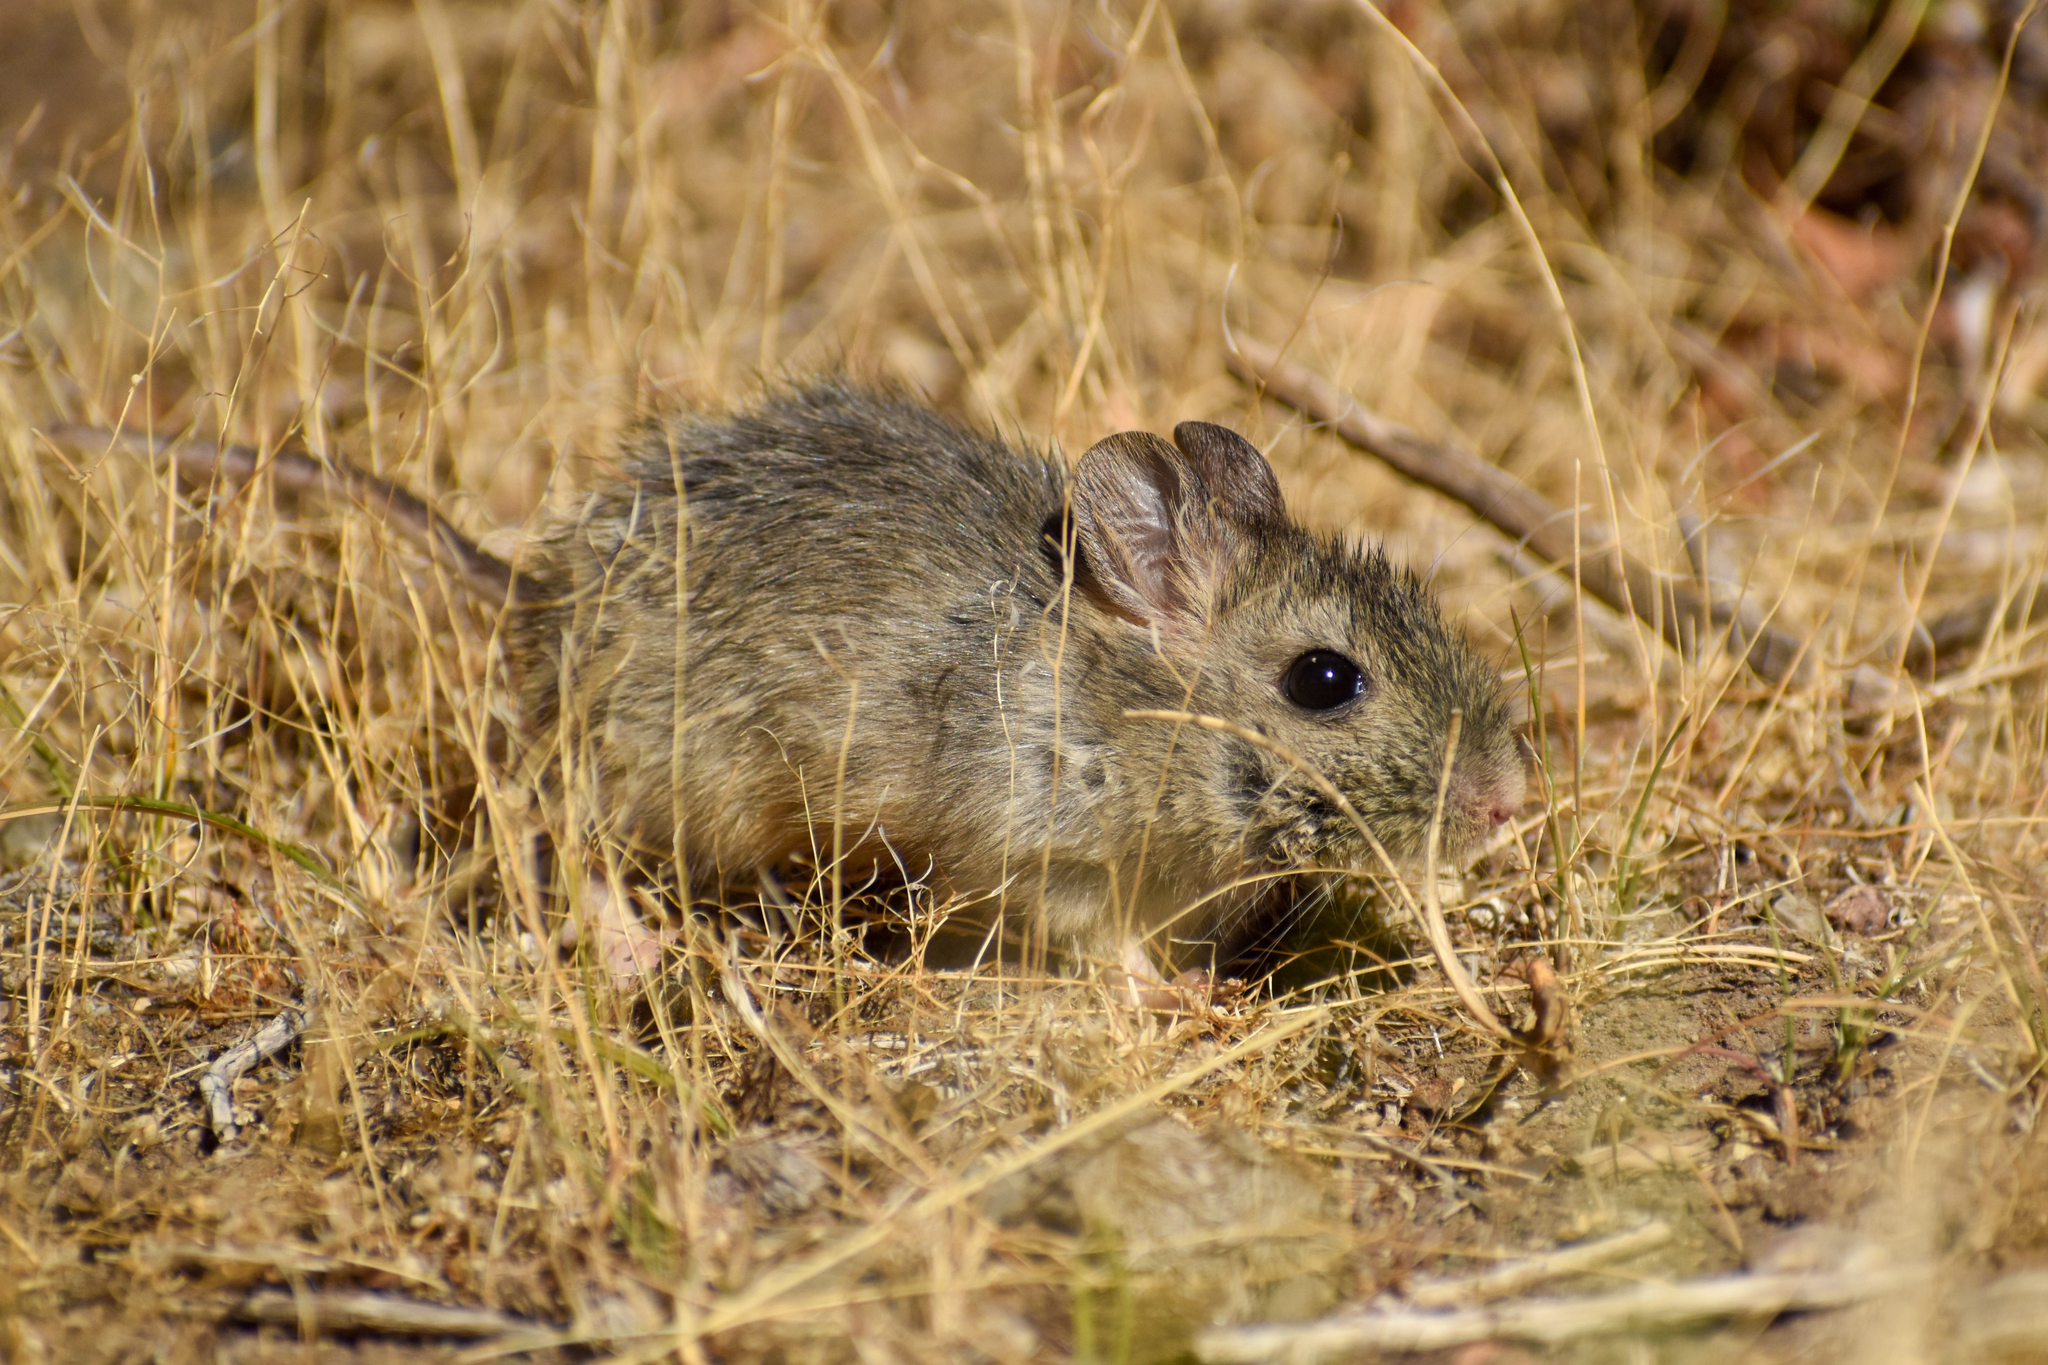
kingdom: Animalia
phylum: Chordata
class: Mammalia
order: Rodentia
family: Cricetidae
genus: Reithrodon
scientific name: Reithrodon auritus
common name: Bunny rat
